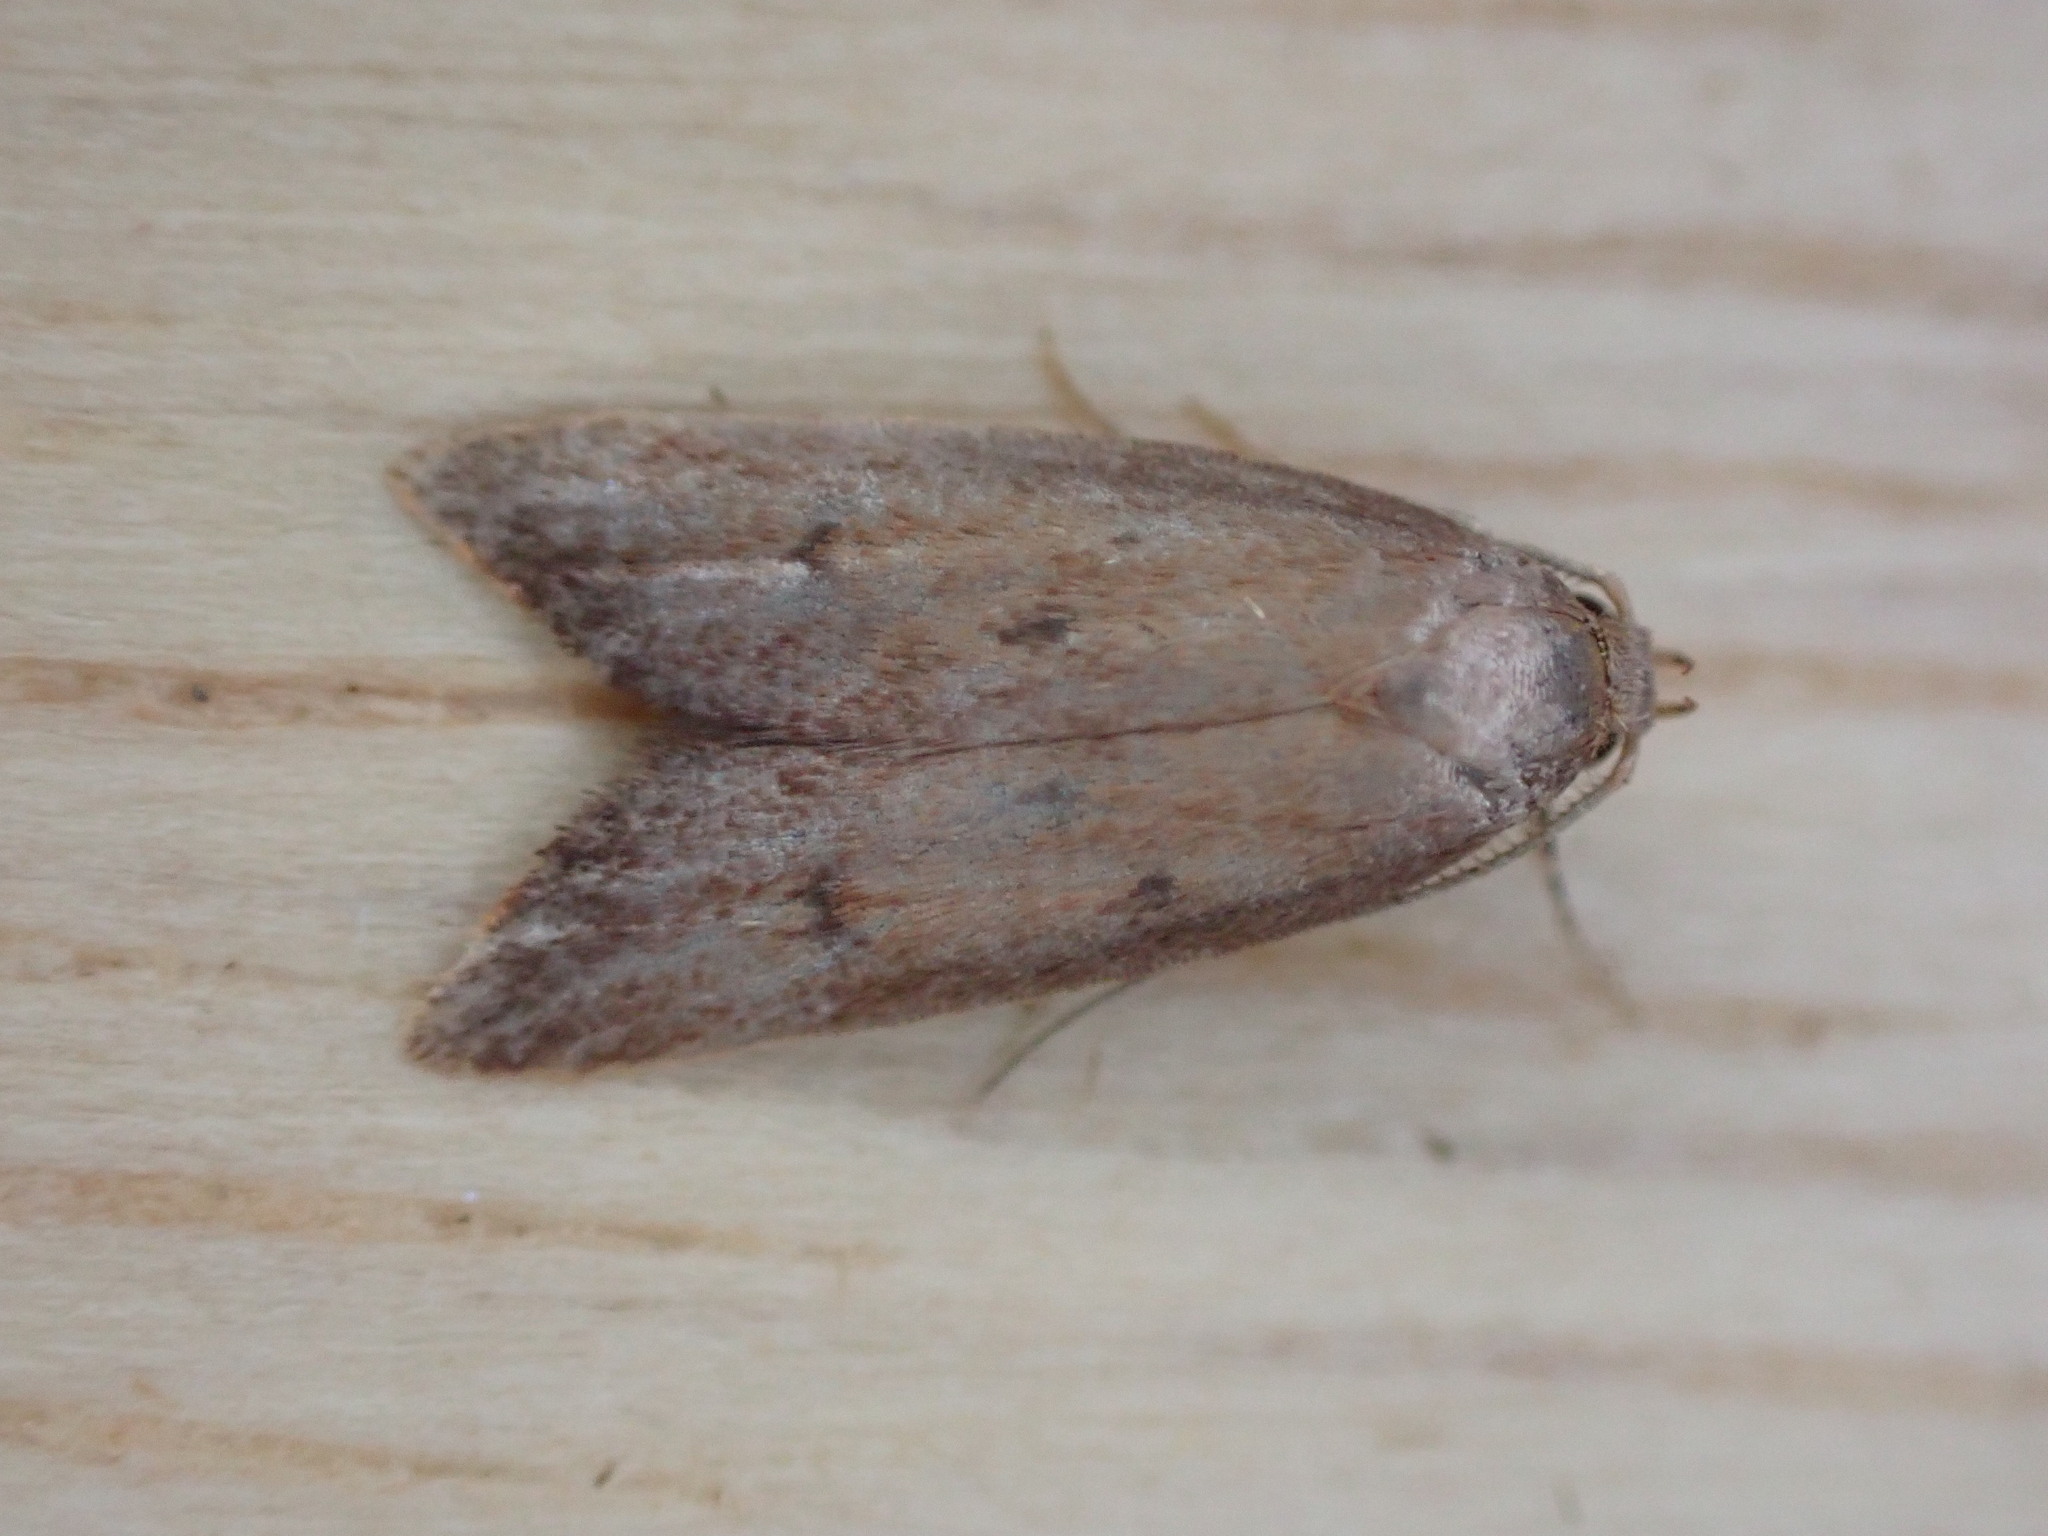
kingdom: Animalia
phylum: Arthropoda
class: Insecta
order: Lepidoptera
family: Oecophoridae
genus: Tachystola
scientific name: Tachystola acroxantha
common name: Ruddy streak
